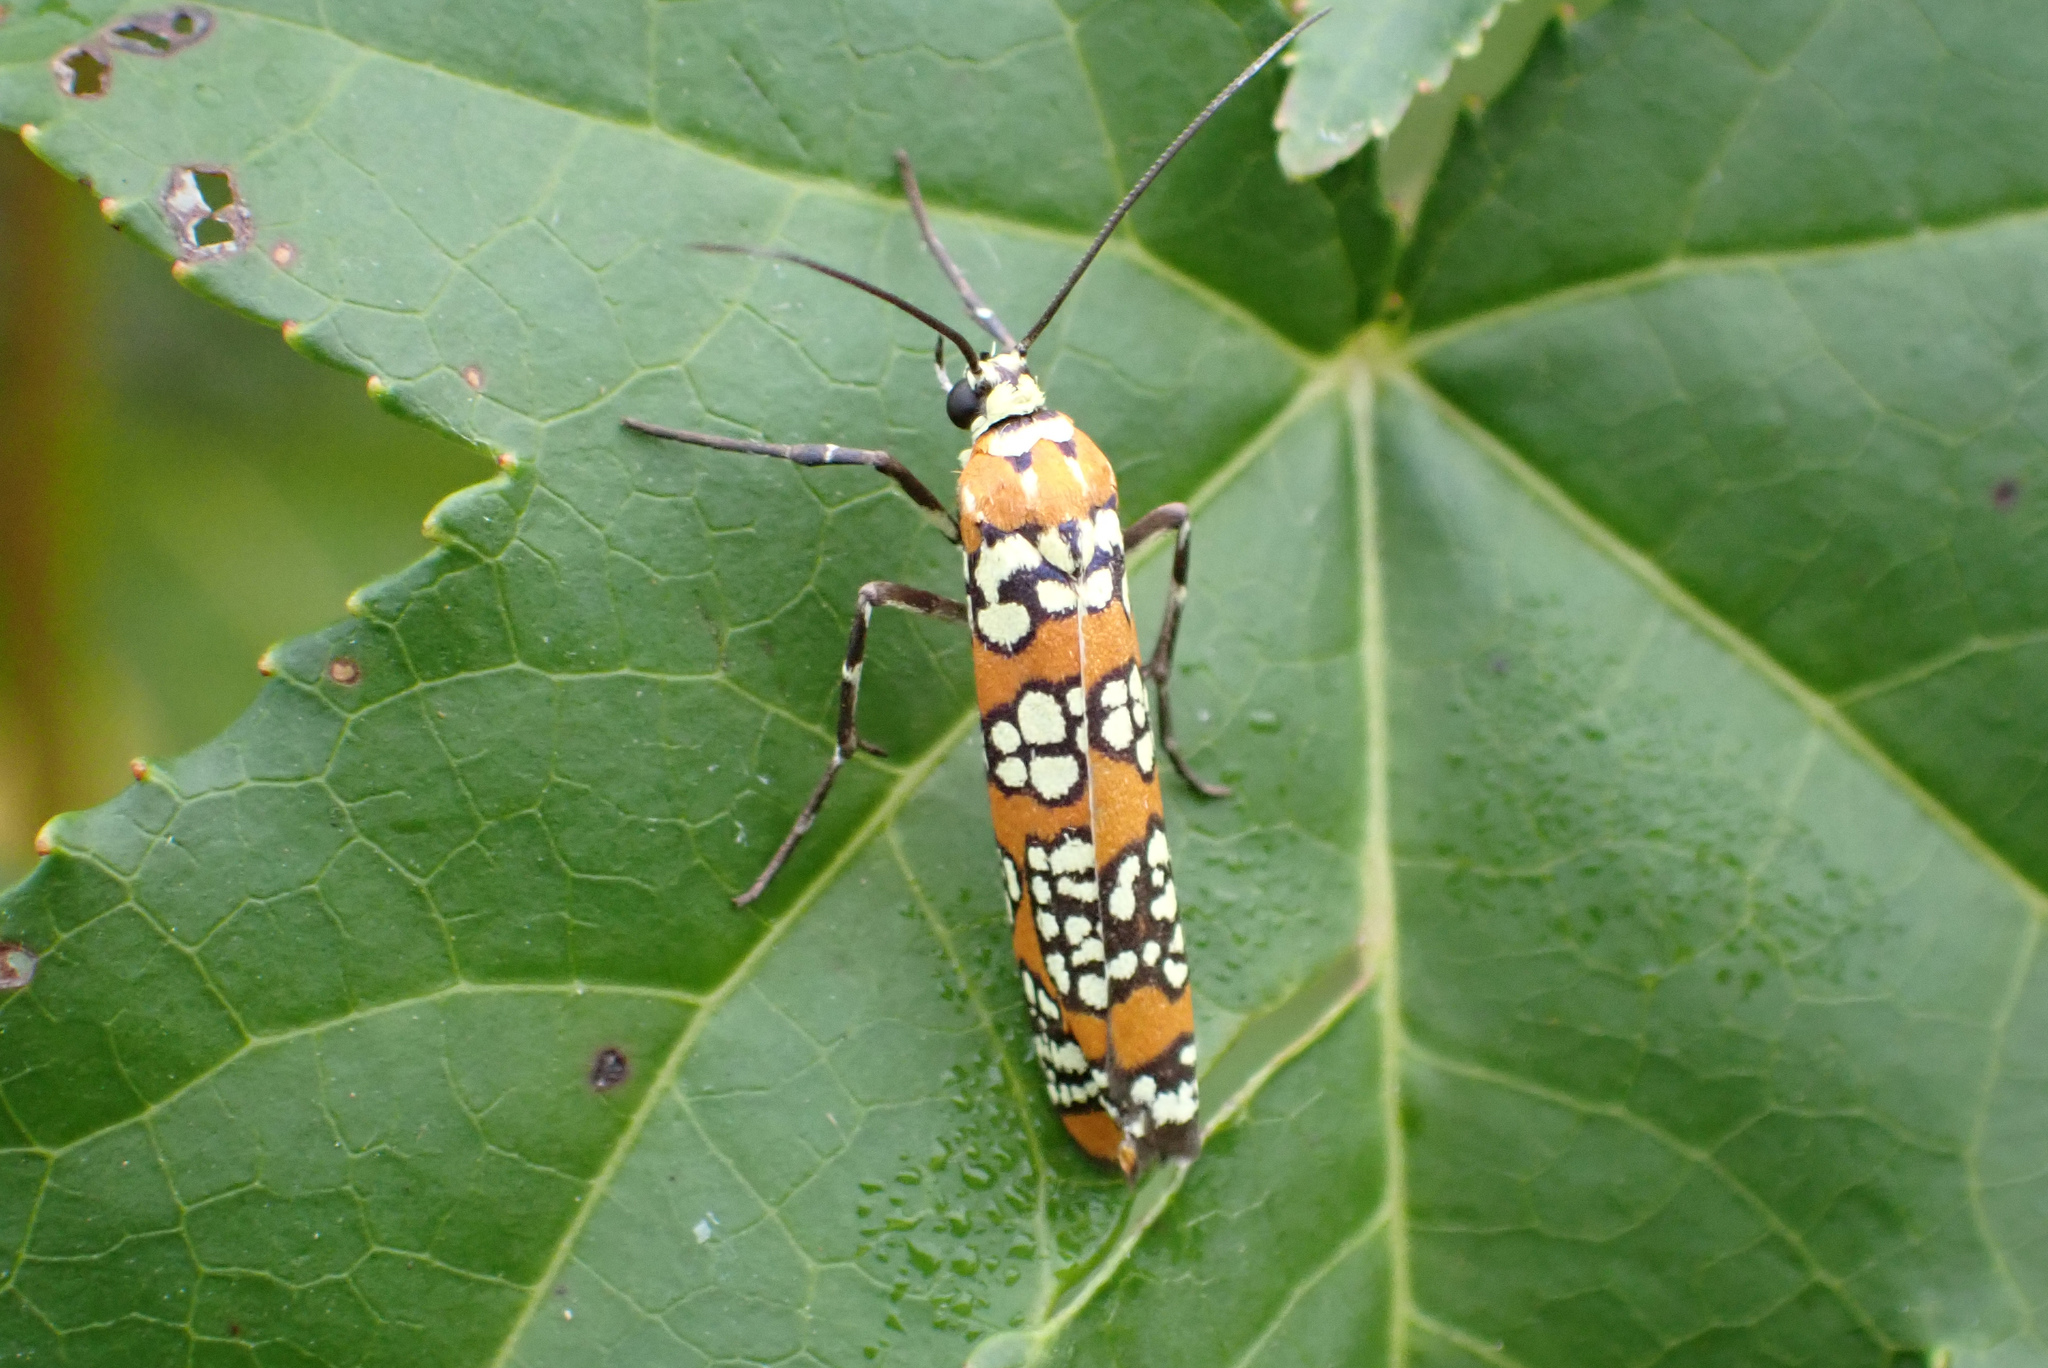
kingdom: Animalia
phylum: Arthropoda
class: Insecta
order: Lepidoptera
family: Attevidae
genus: Atteva
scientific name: Atteva punctella
